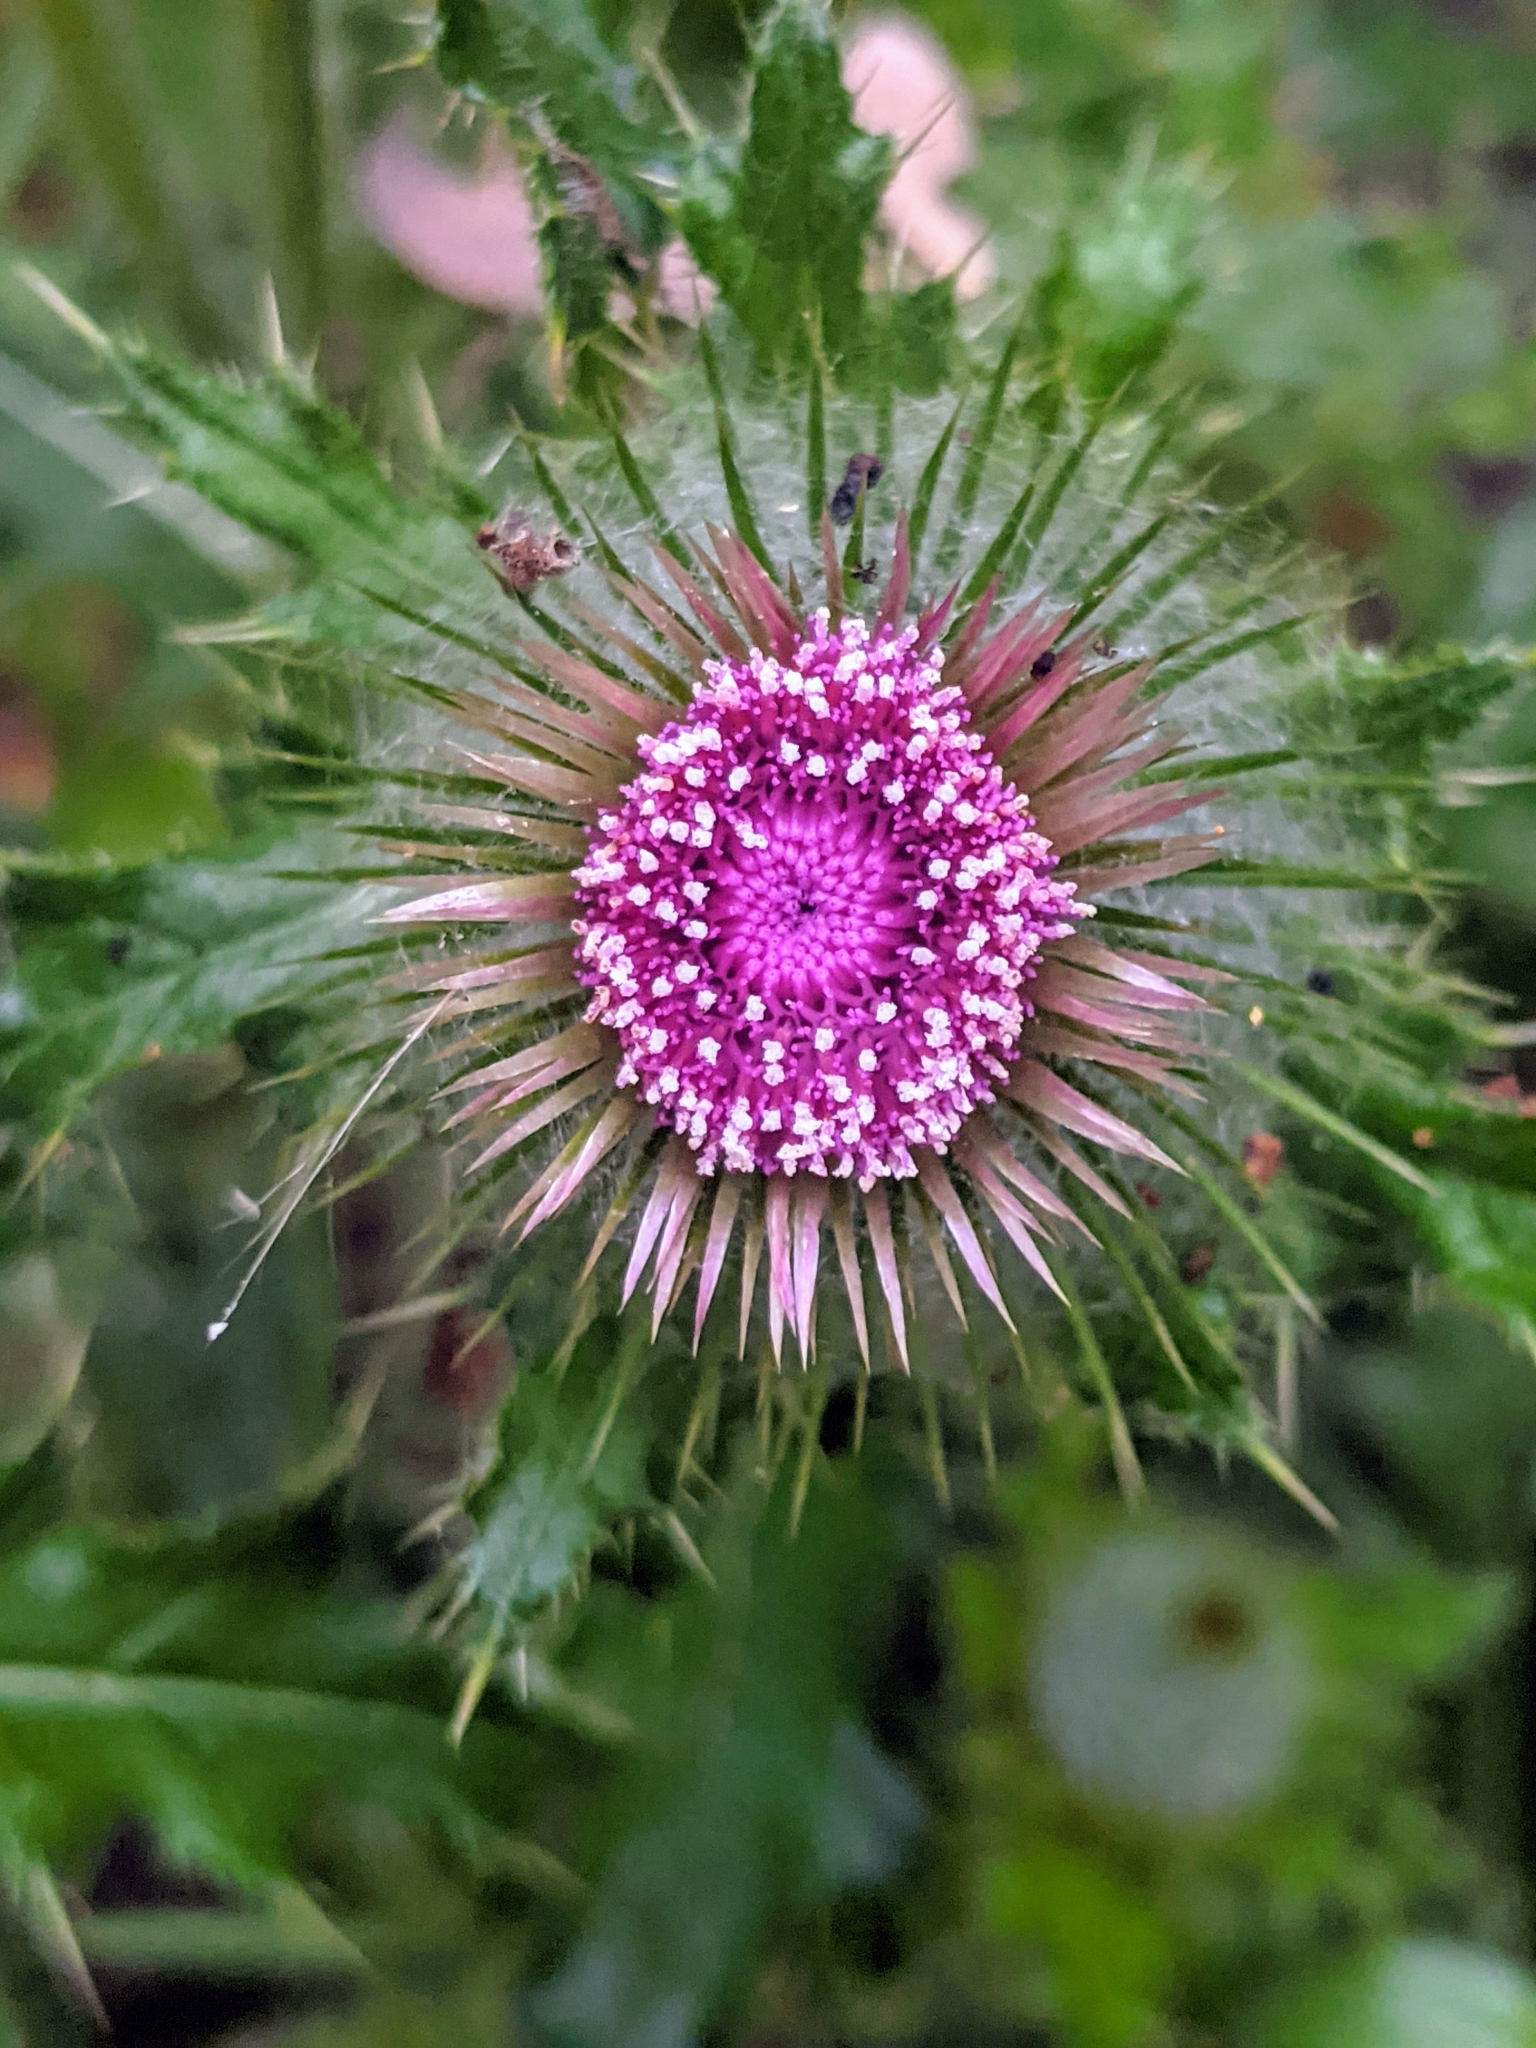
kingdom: Plantae
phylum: Tracheophyta
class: Magnoliopsida
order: Asterales
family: Asteraceae
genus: Cirsium
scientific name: Cirsium brevistylum
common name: Indian thistle
